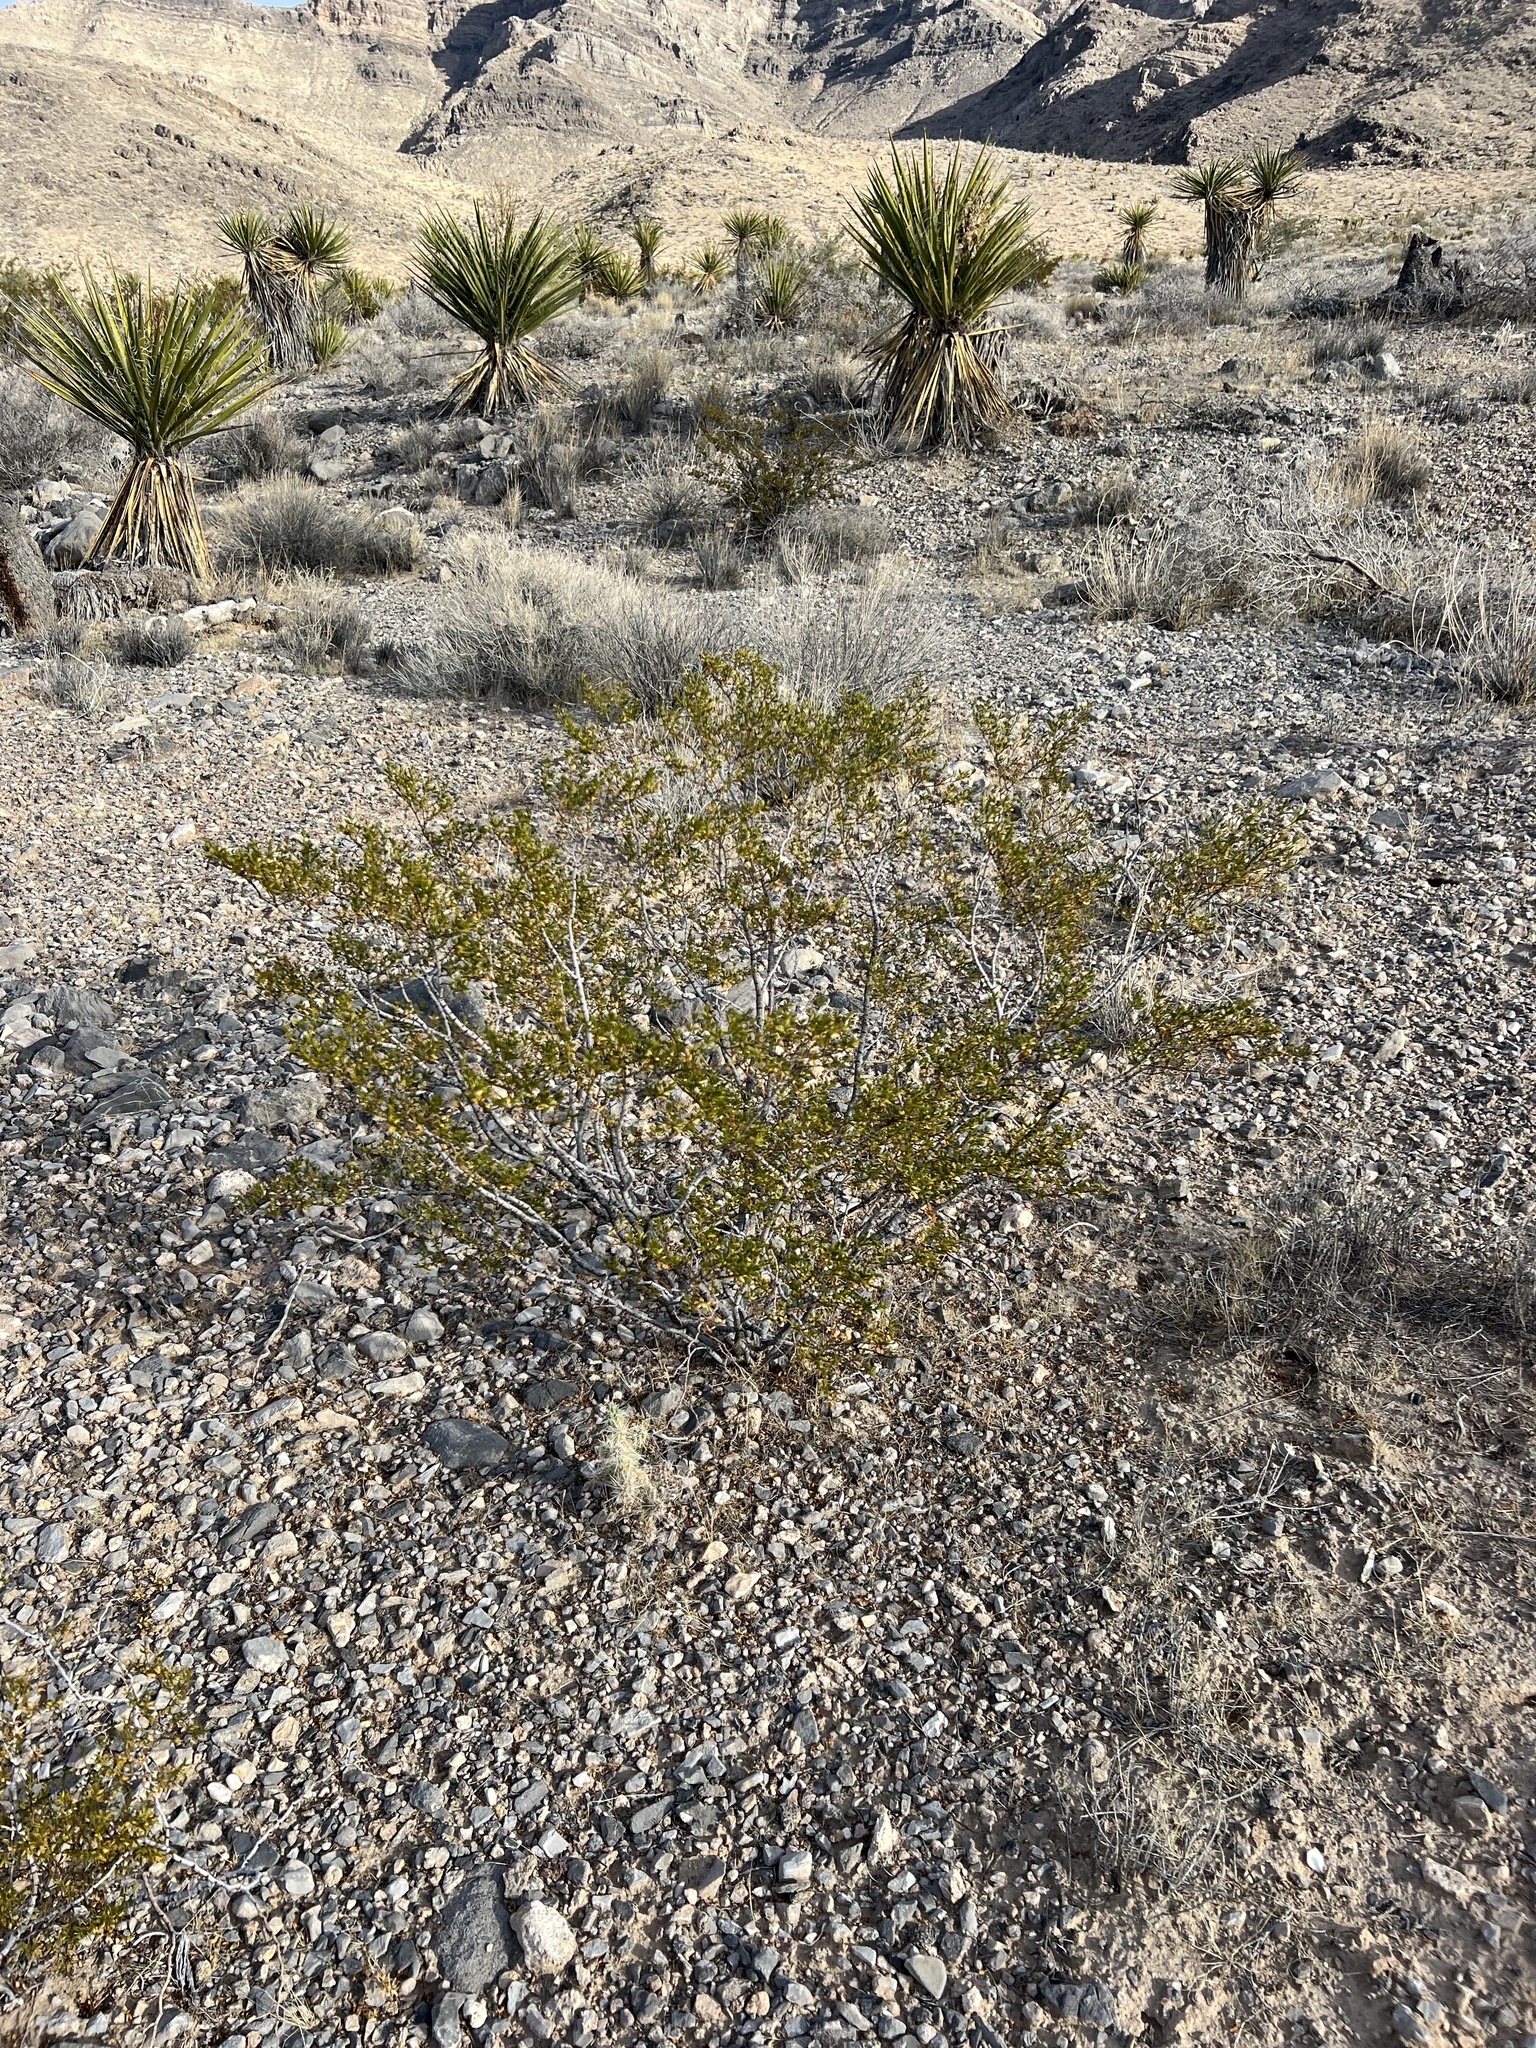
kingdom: Plantae
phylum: Tracheophyta
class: Magnoliopsida
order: Zygophyllales
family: Zygophyllaceae
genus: Larrea
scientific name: Larrea tridentata
